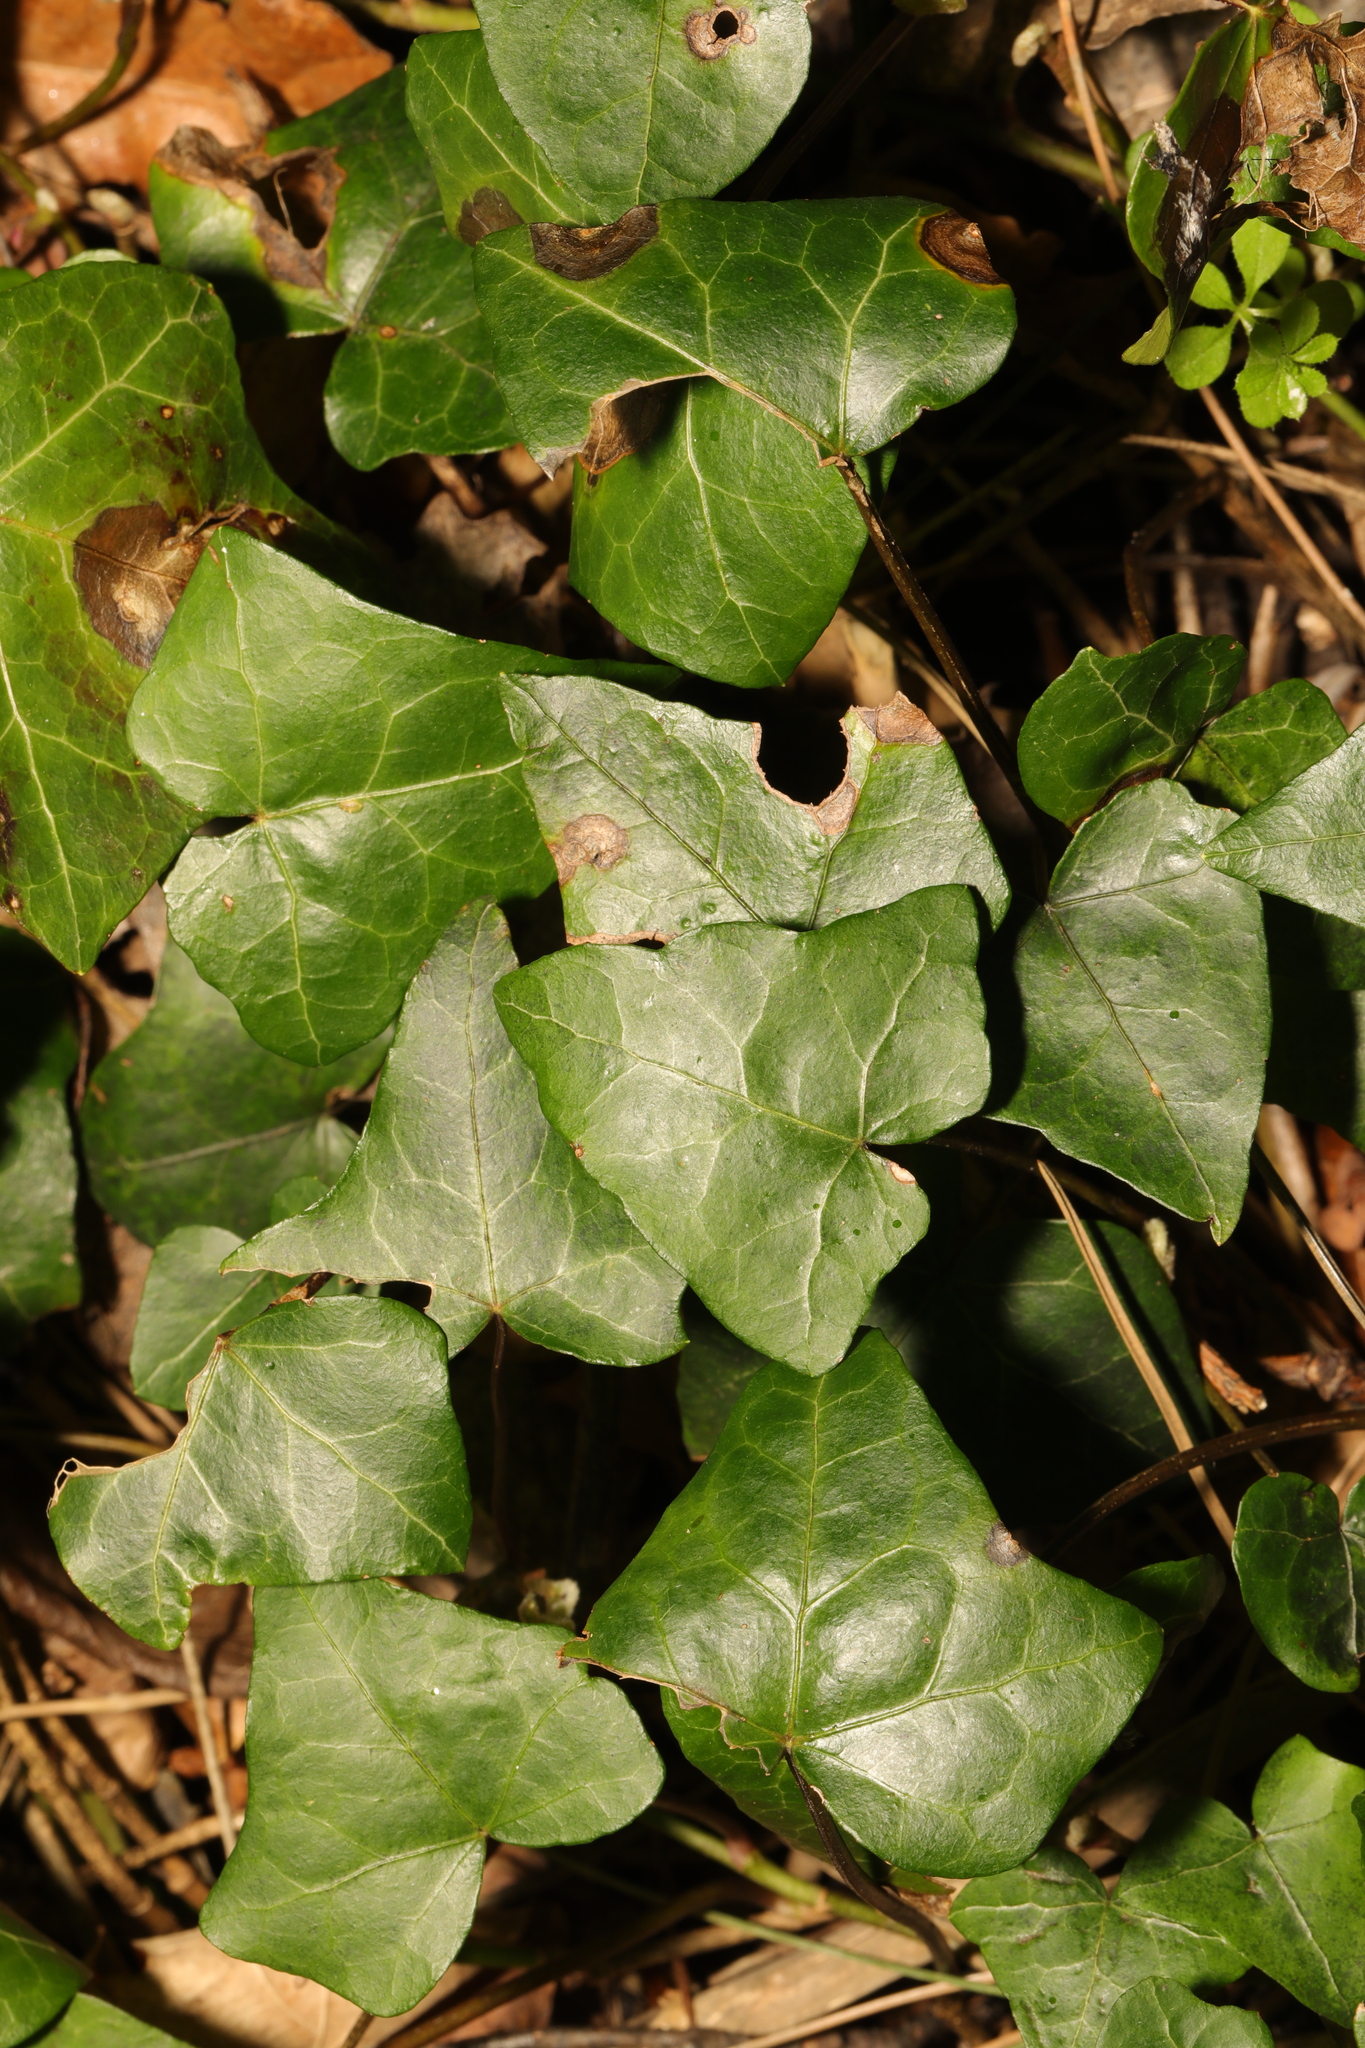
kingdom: Plantae
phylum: Tracheophyta
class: Magnoliopsida
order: Apiales
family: Araliaceae
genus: Hedera
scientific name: Hedera helix
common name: Ivy
